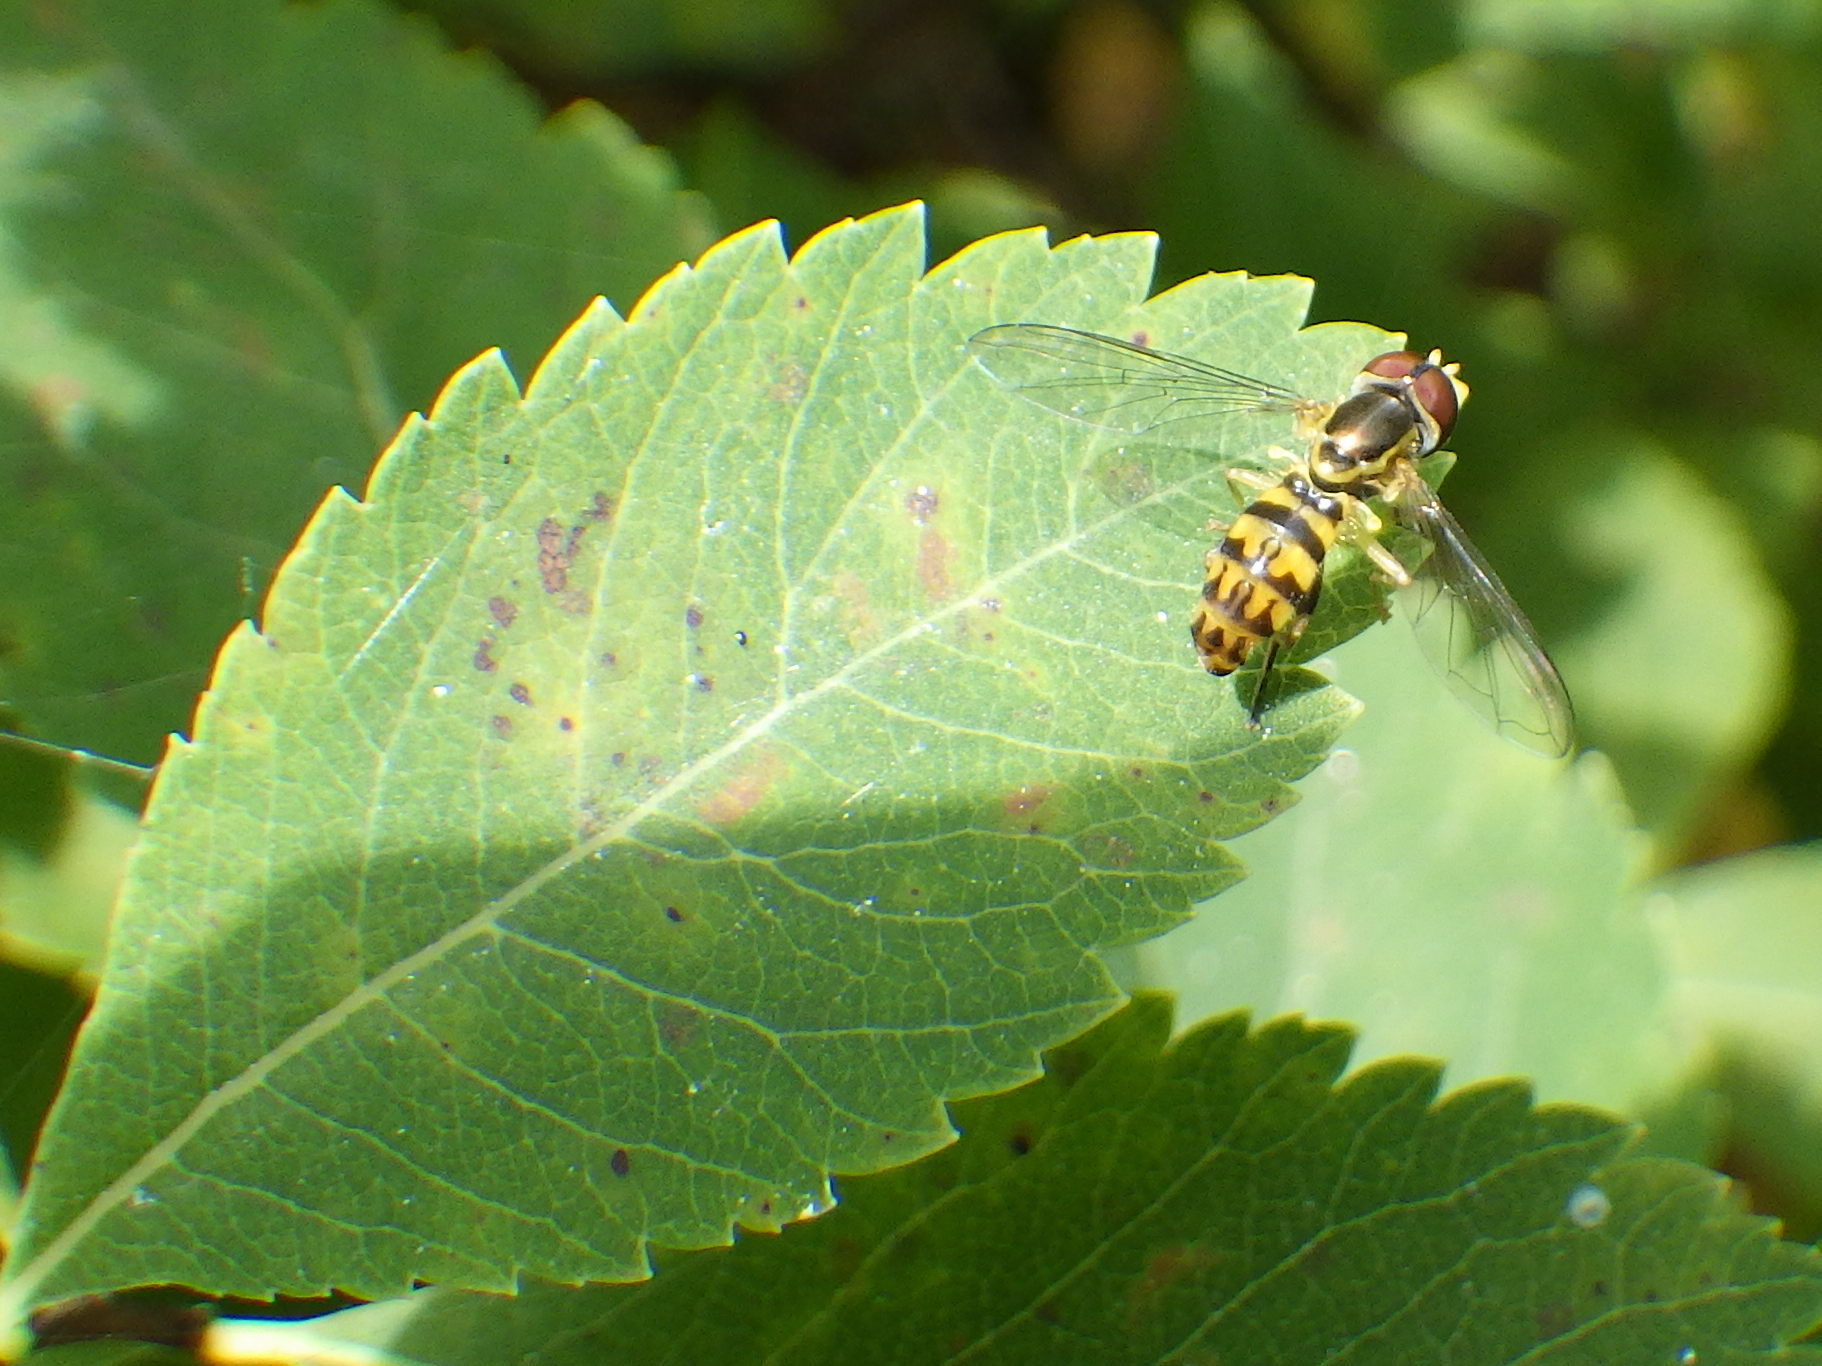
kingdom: Animalia
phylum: Arthropoda
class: Insecta
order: Diptera
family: Syrphidae
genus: Toxomerus
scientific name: Toxomerus geminatus
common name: Eastern calligrapher
